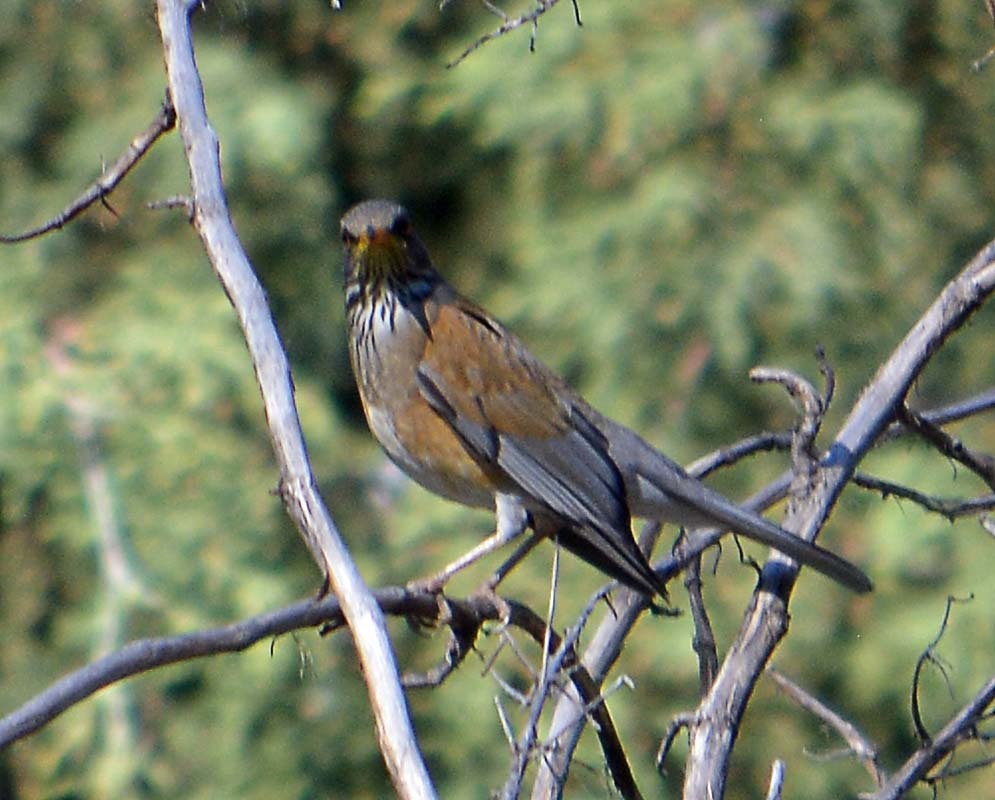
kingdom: Animalia
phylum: Chordata
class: Aves
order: Passeriformes
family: Turdidae
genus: Turdus
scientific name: Turdus rufopalliatus
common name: Rufous-backed robin
